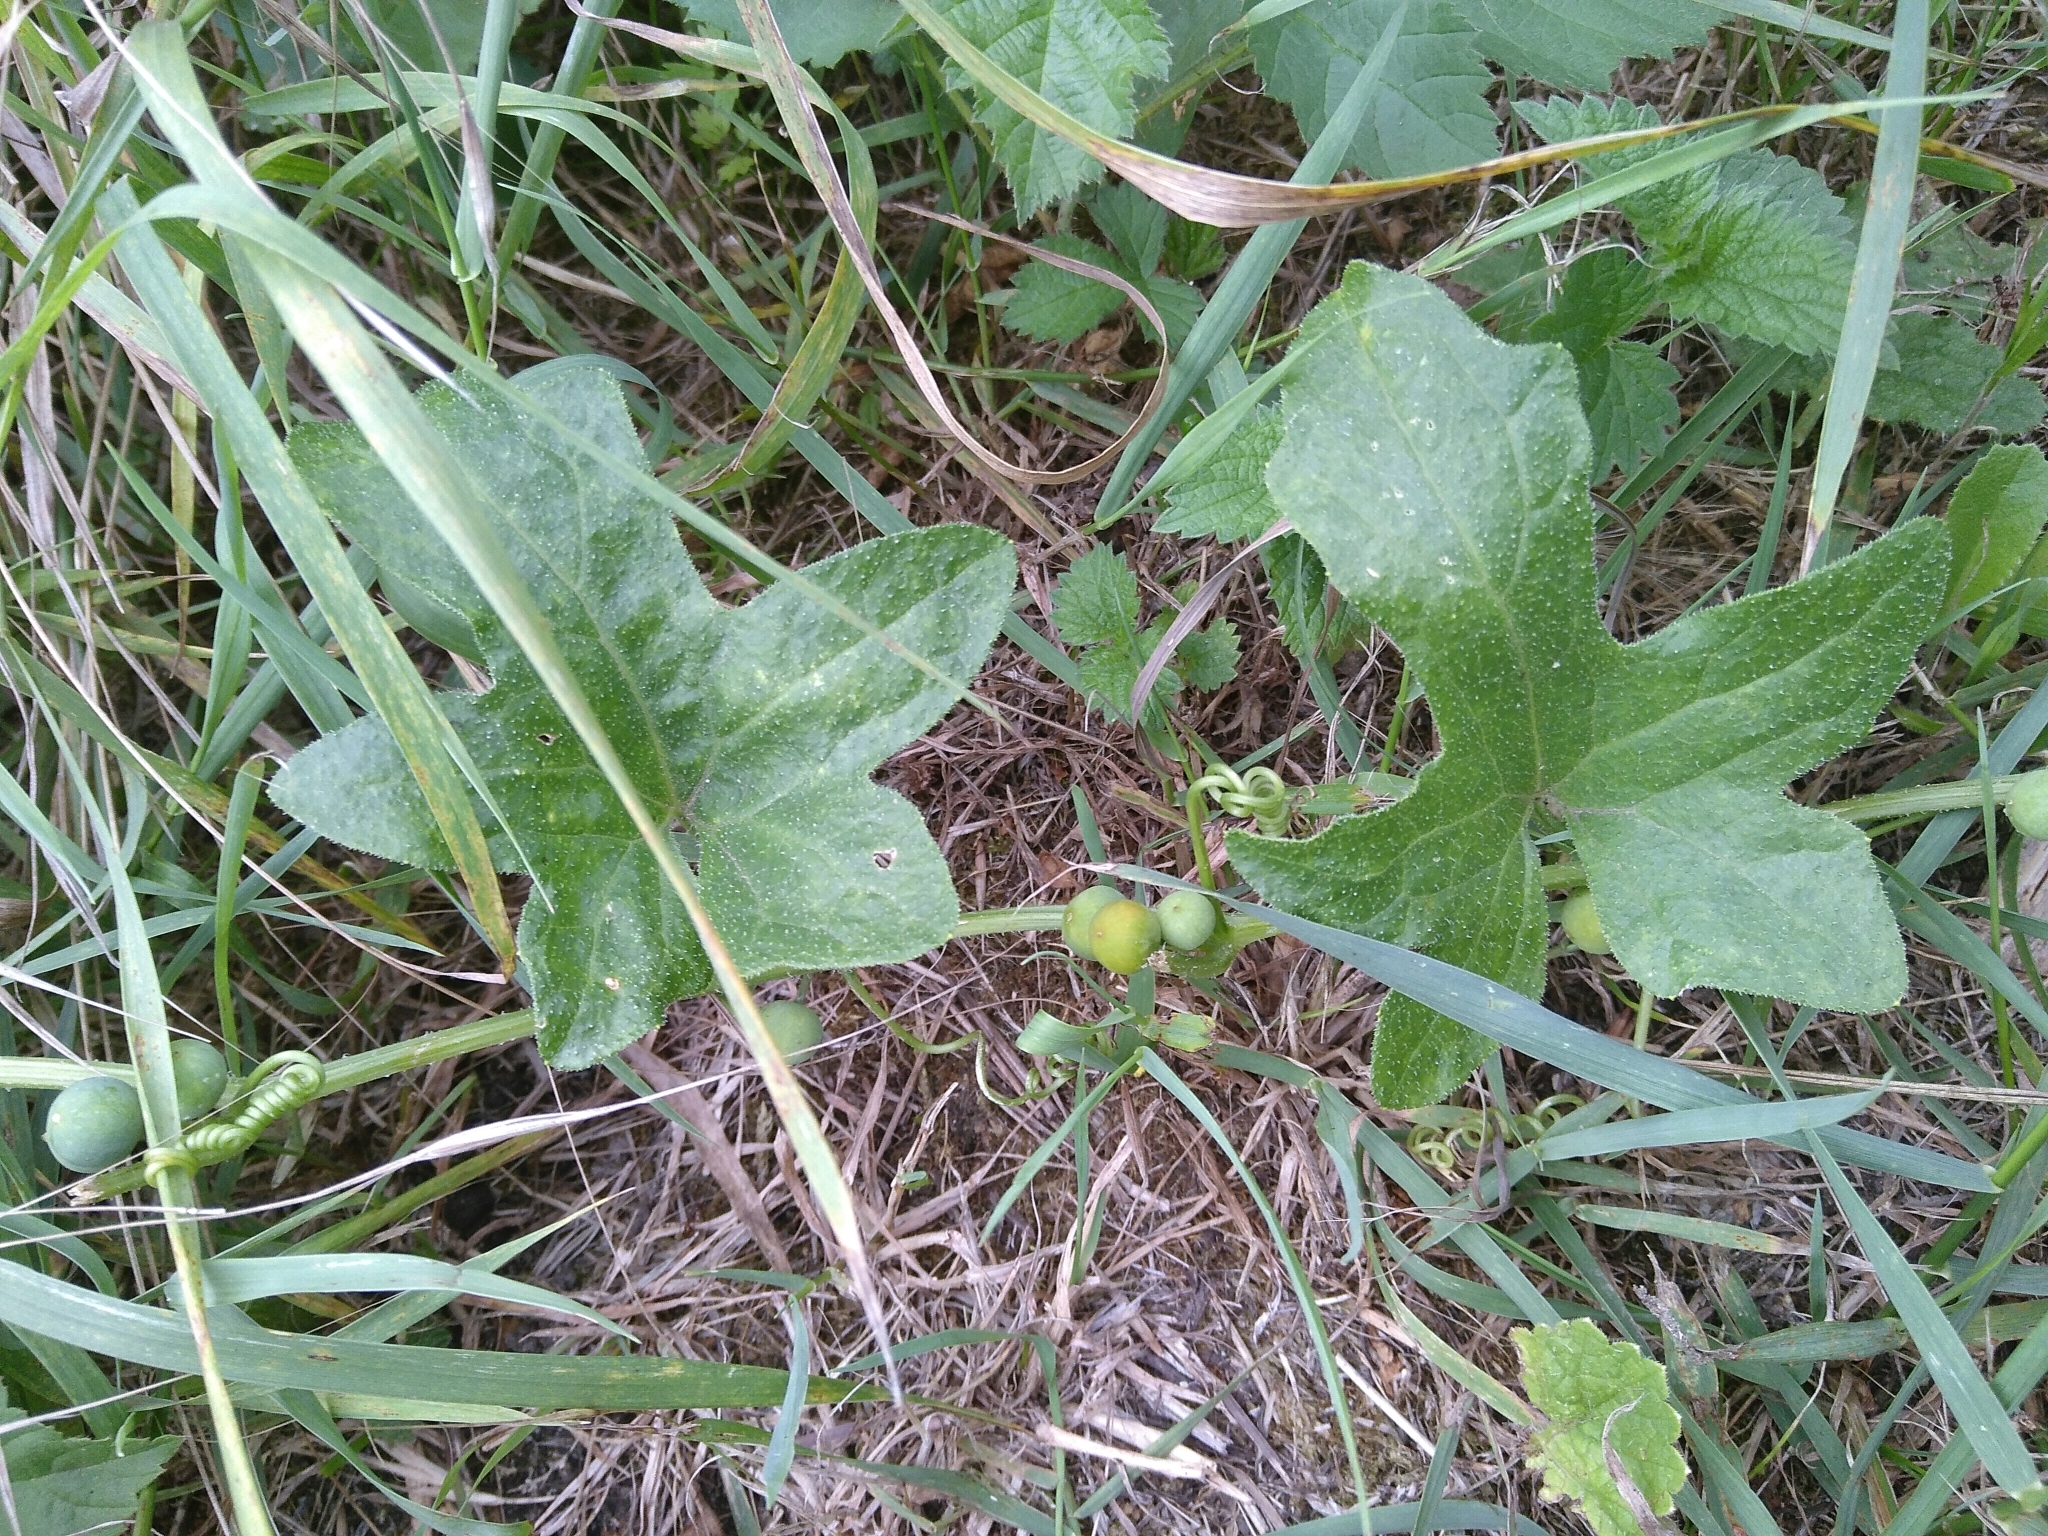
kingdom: Plantae
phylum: Tracheophyta
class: Magnoliopsida
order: Cucurbitales
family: Cucurbitaceae
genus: Bryonia
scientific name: Bryonia dioica
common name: White bryony
